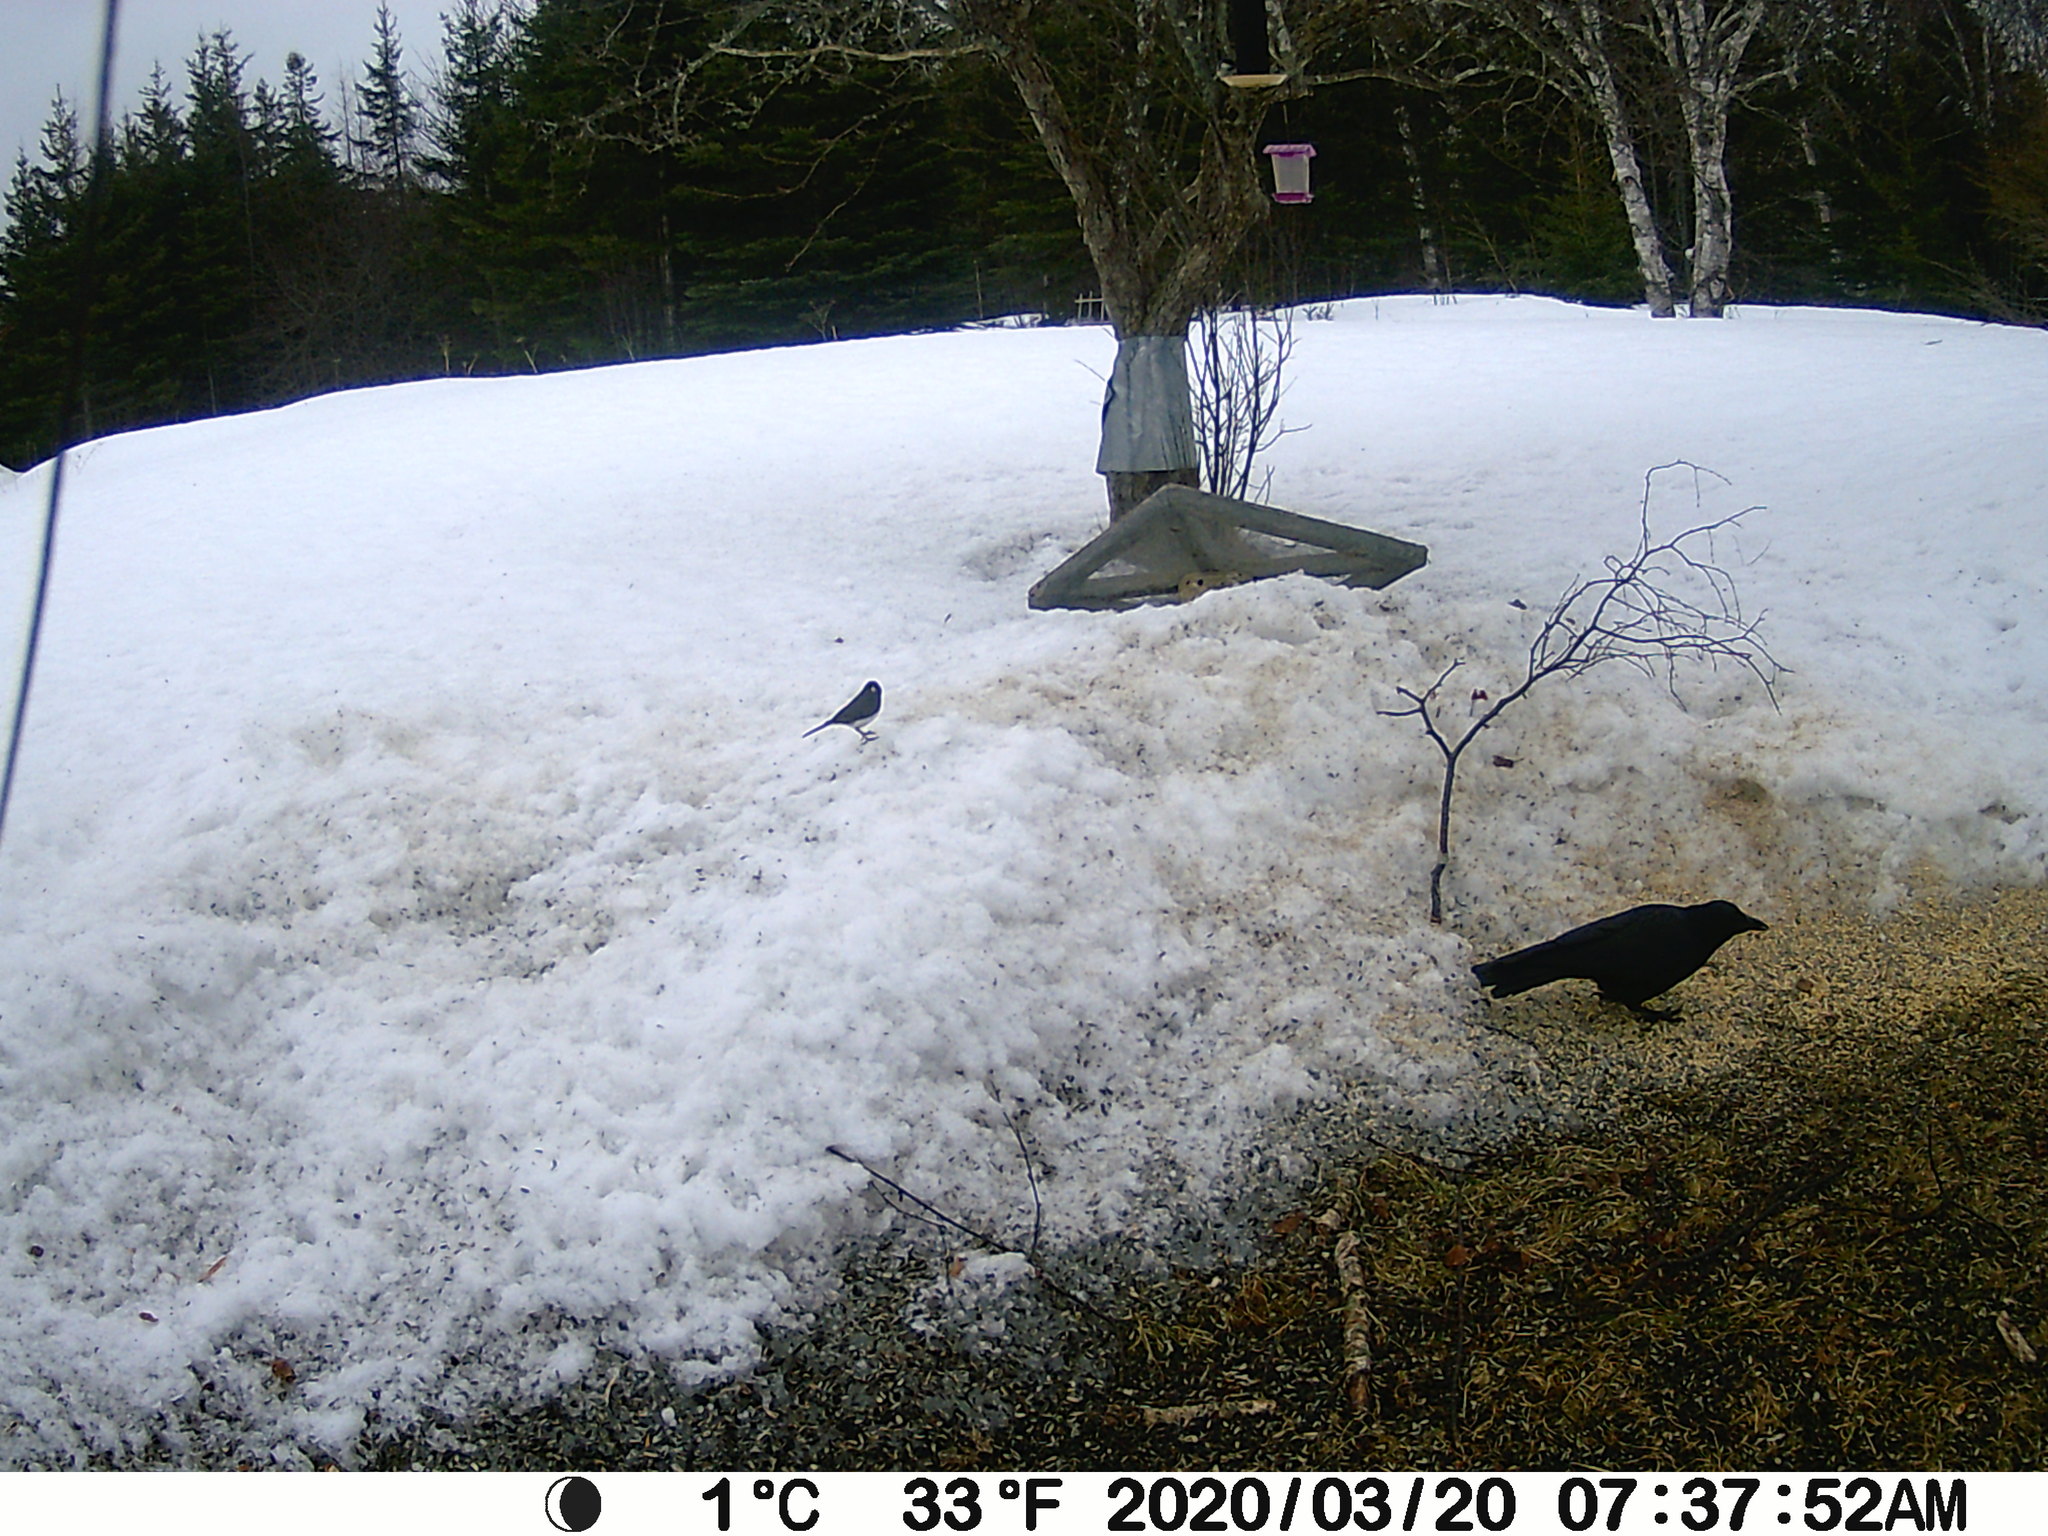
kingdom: Animalia
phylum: Chordata
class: Aves
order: Passeriformes
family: Passerellidae
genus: Junco
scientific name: Junco hyemalis
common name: Dark-eyed junco
